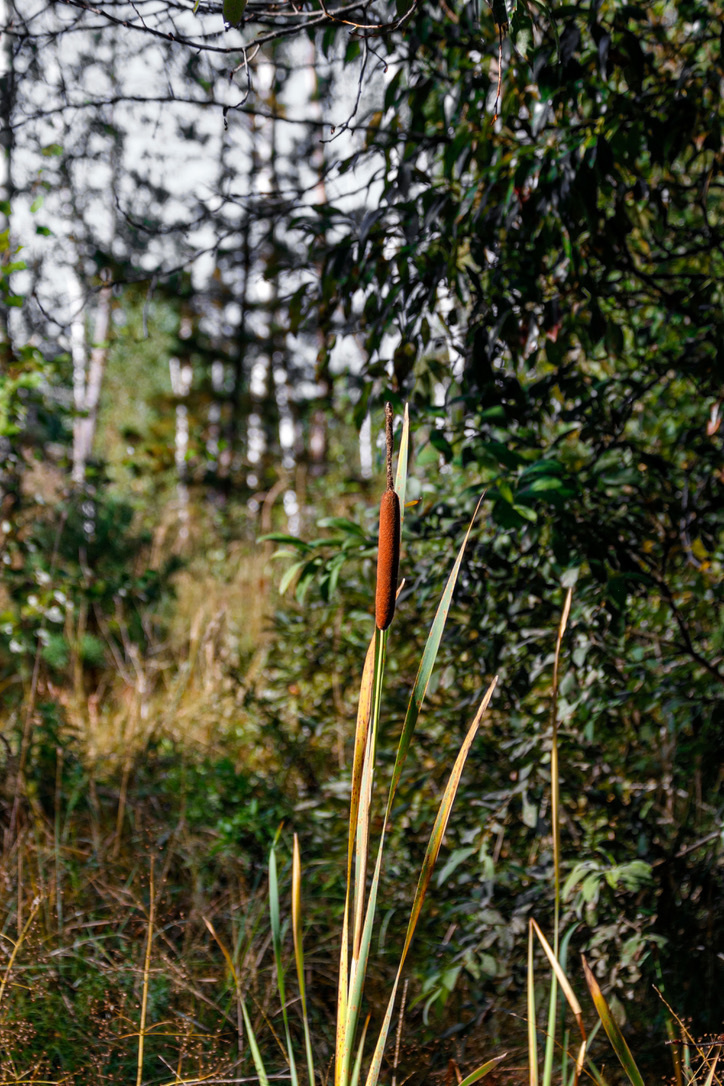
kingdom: Plantae
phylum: Tracheophyta
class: Liliopsida
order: Poales
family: Typhaceae
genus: Typha
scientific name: Typha latifolia
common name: Broadleaf cattail
